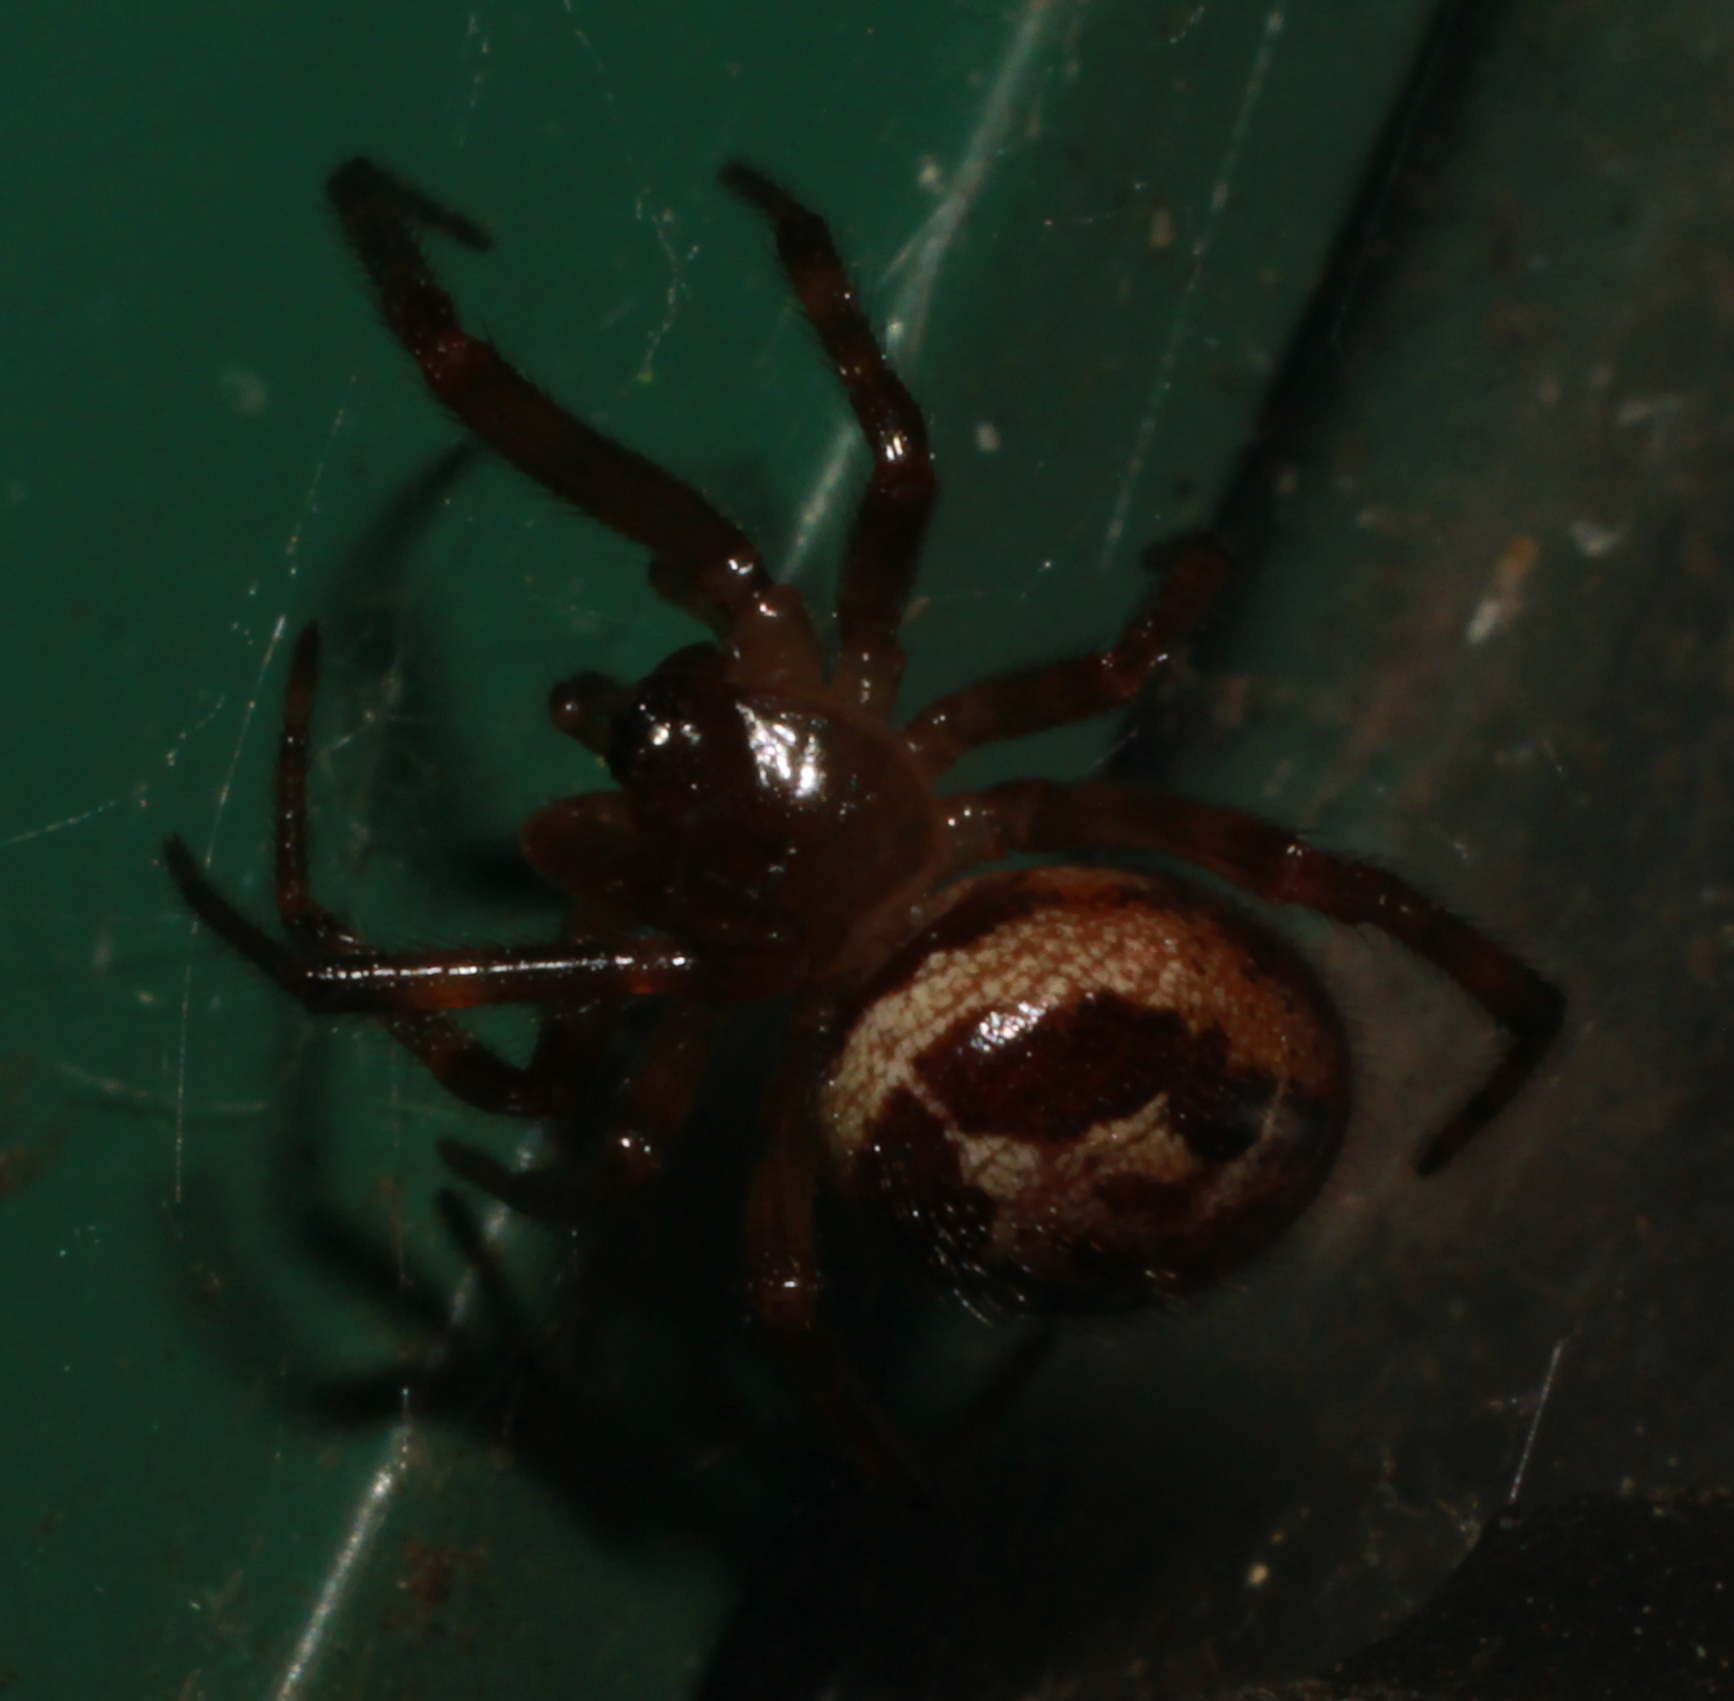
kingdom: Animalia
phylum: Arthropoda
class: Arachnida
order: Araneae
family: Theridiidae
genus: Steatoda
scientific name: Steatoda nobilis
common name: Cobweb weaver
